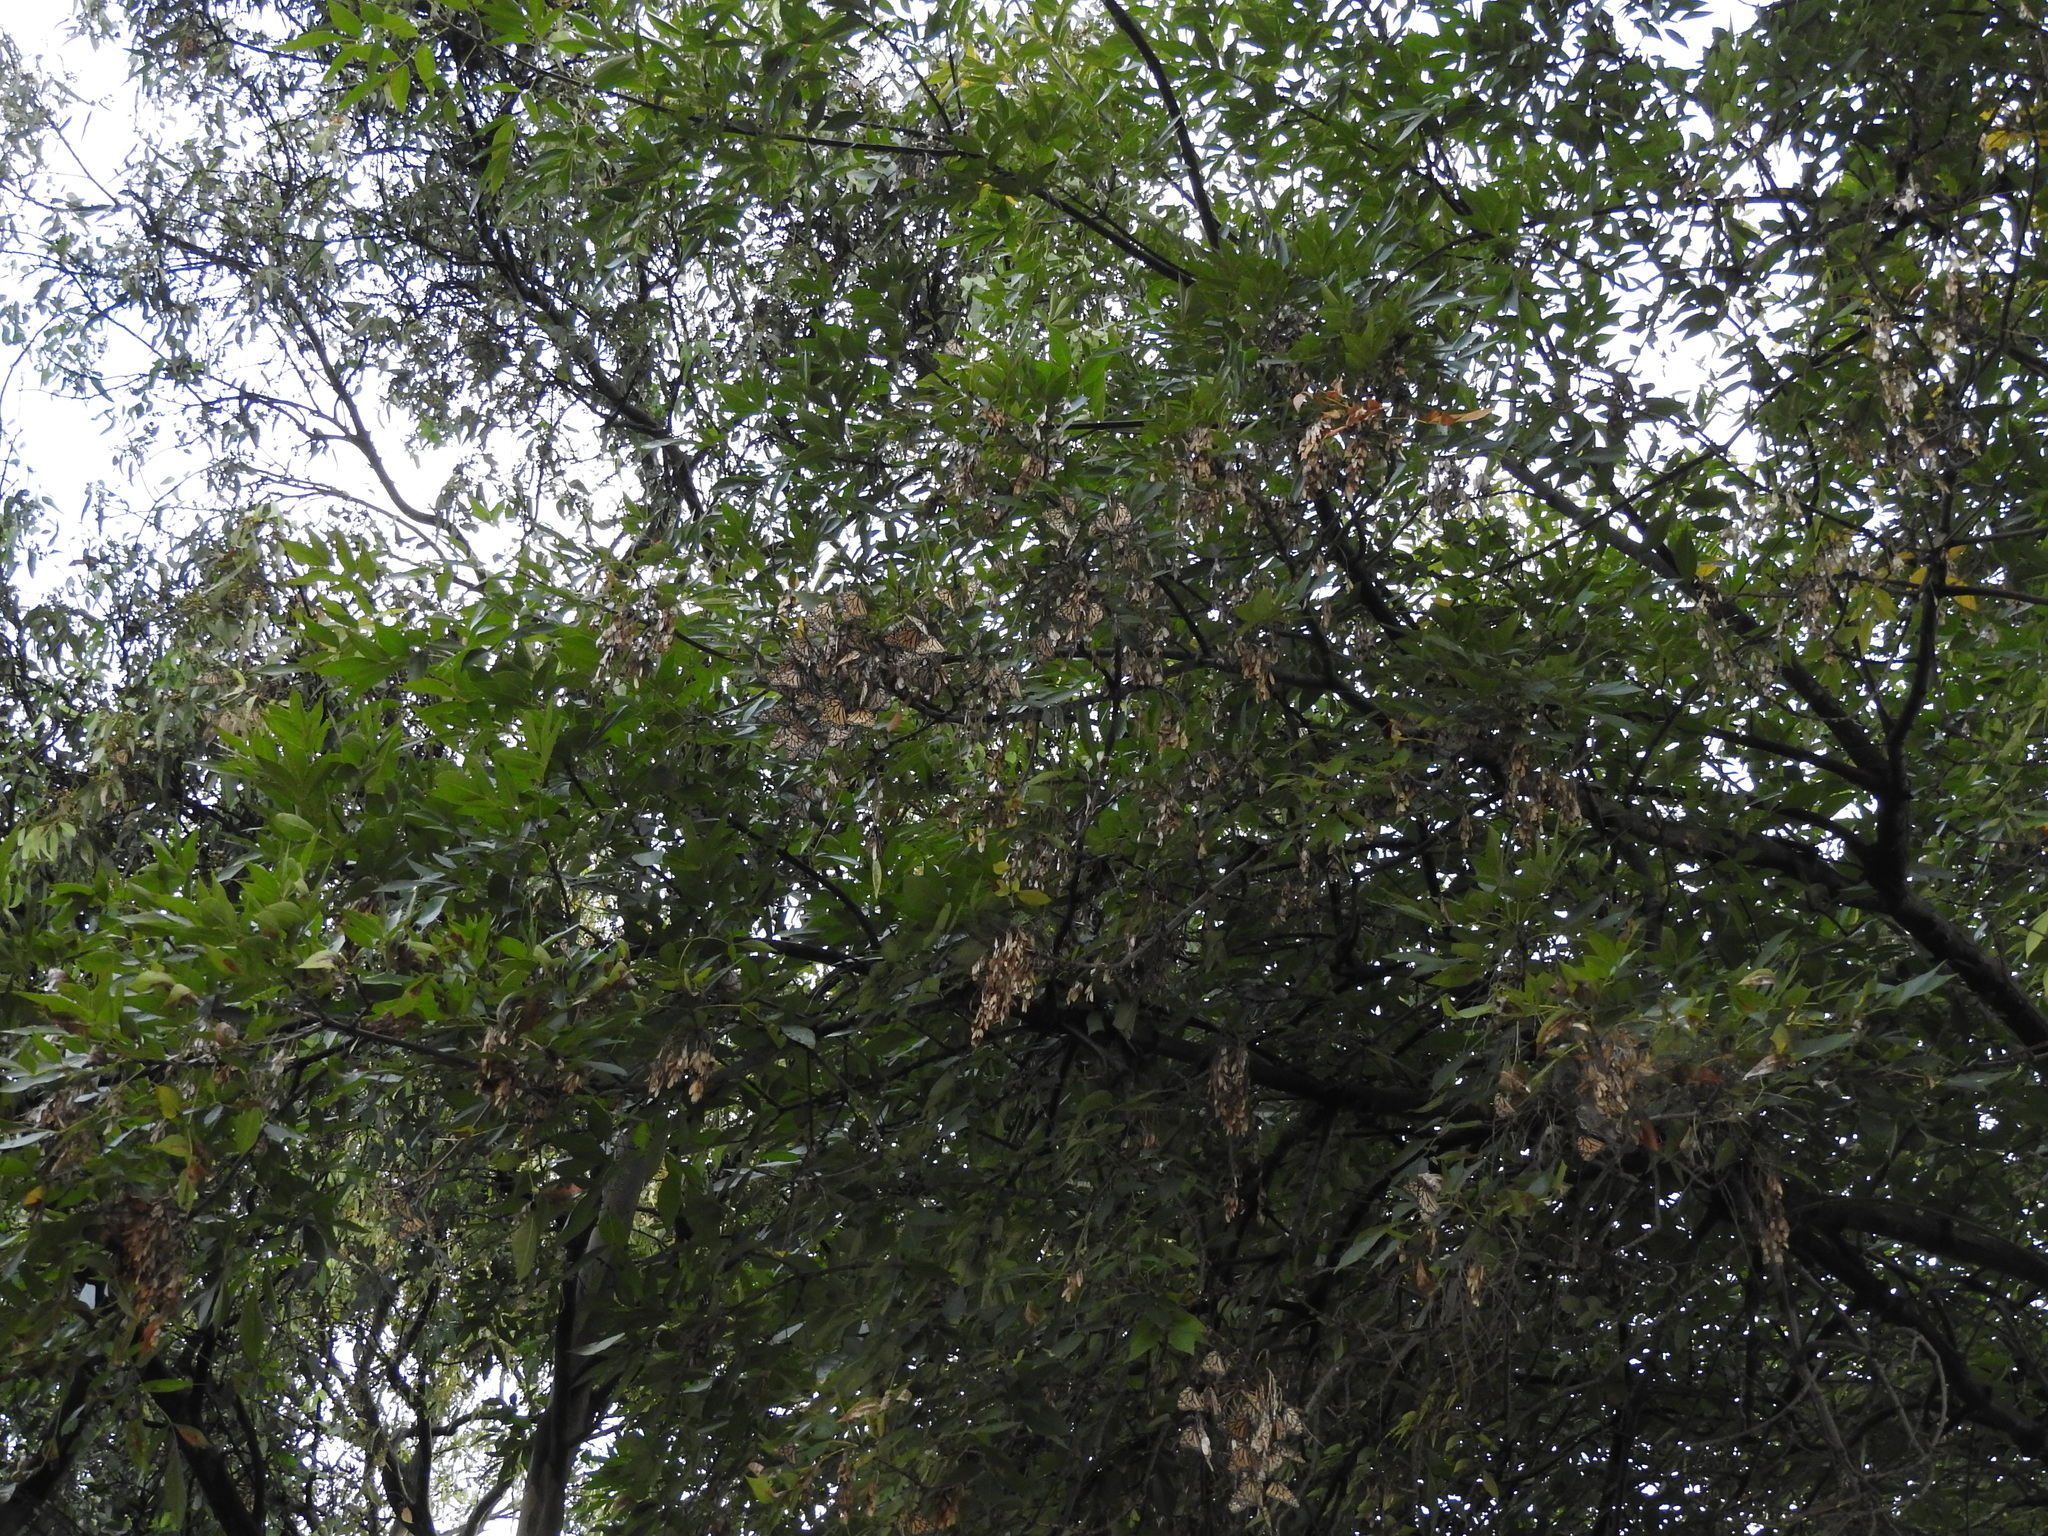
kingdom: Animalia
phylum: Arthropoda
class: Insecta
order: Lepidoptera
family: Nymphalidae
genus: Danaus
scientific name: Danaus plexippus
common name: Monarch
